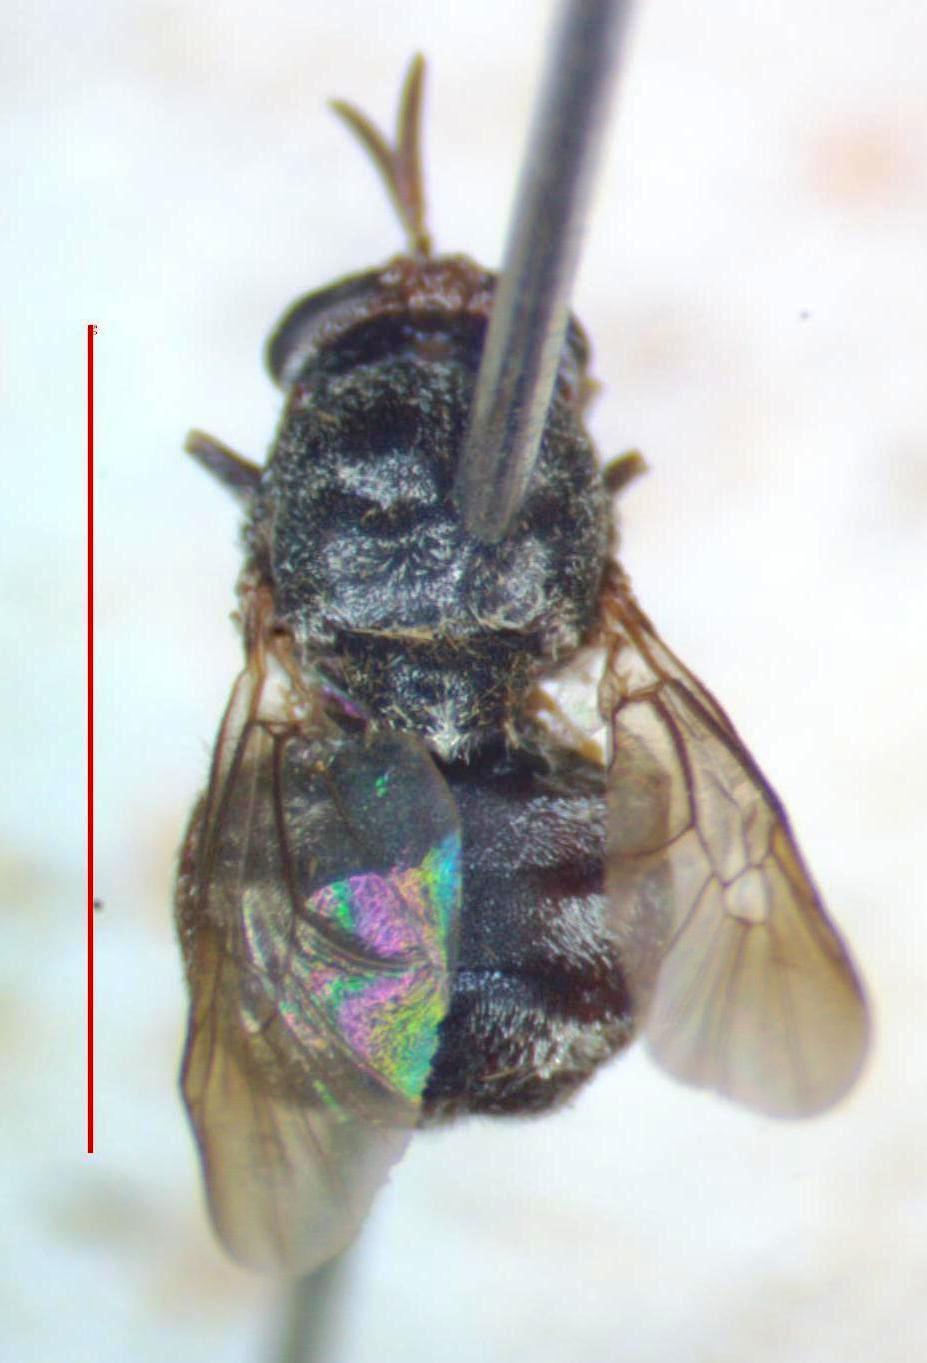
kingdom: Animalia
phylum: Arthropoda
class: Insecta
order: Diptera
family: Stratiomyidae
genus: Dicyphoma
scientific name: Dicyphoma schaefferi
